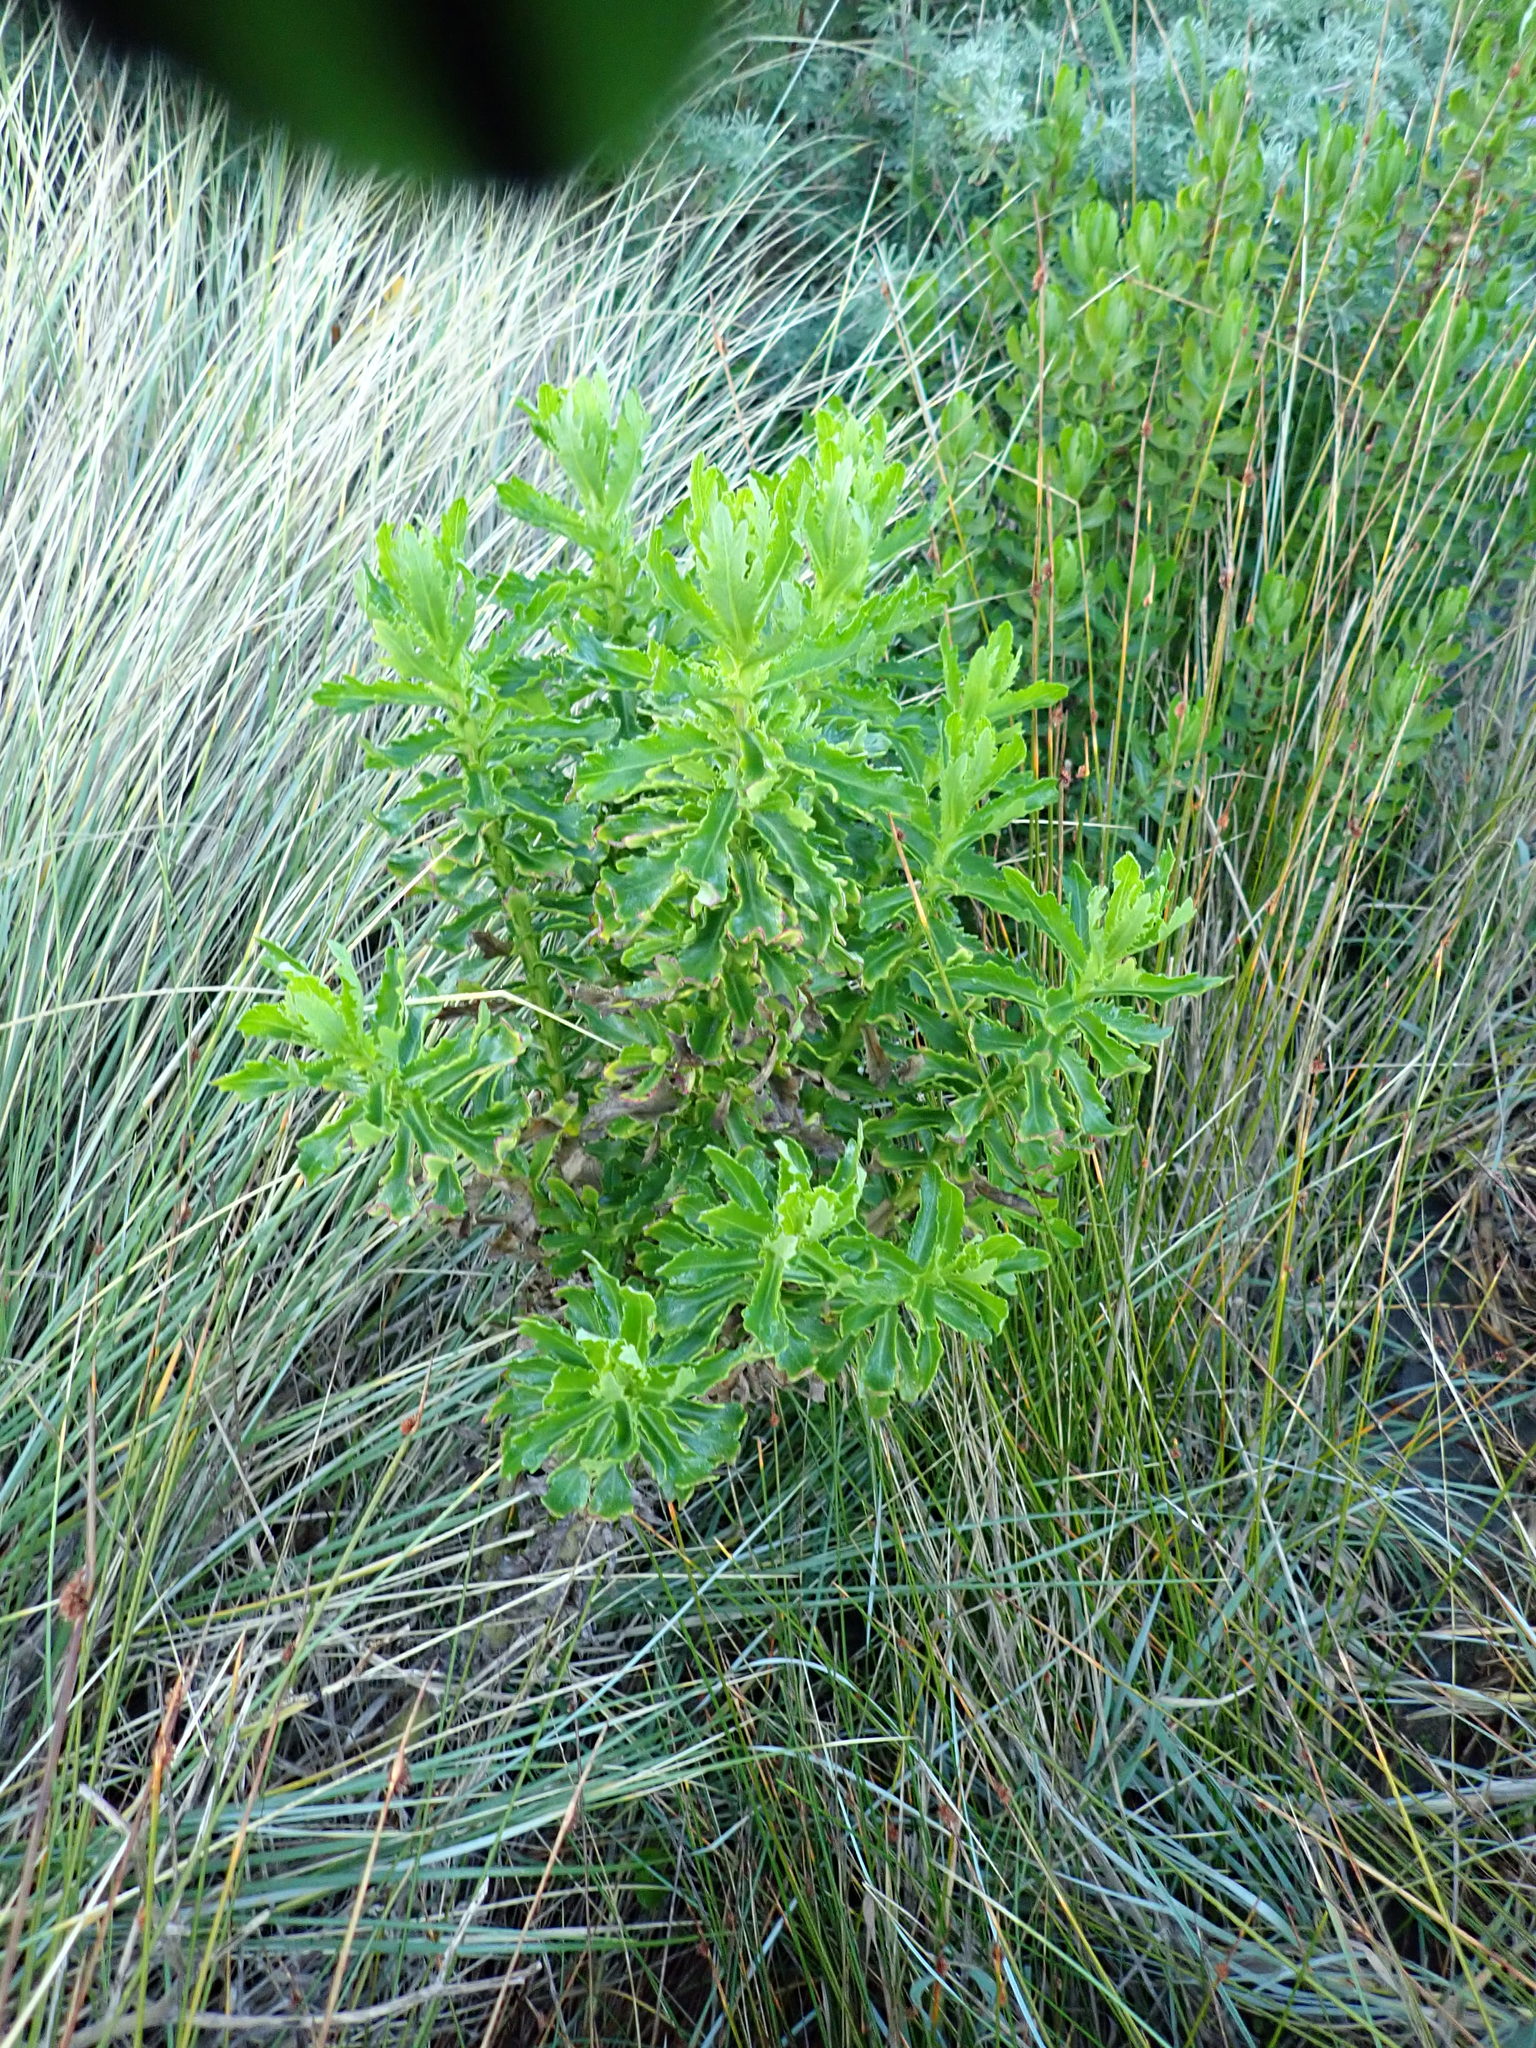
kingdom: Plantae
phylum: Tracheophyta
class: Magnoliopsida
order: Asterales
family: Asteraceae
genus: Senecio
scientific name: Senecio glastifolius
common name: Woad-leaved ragwort
